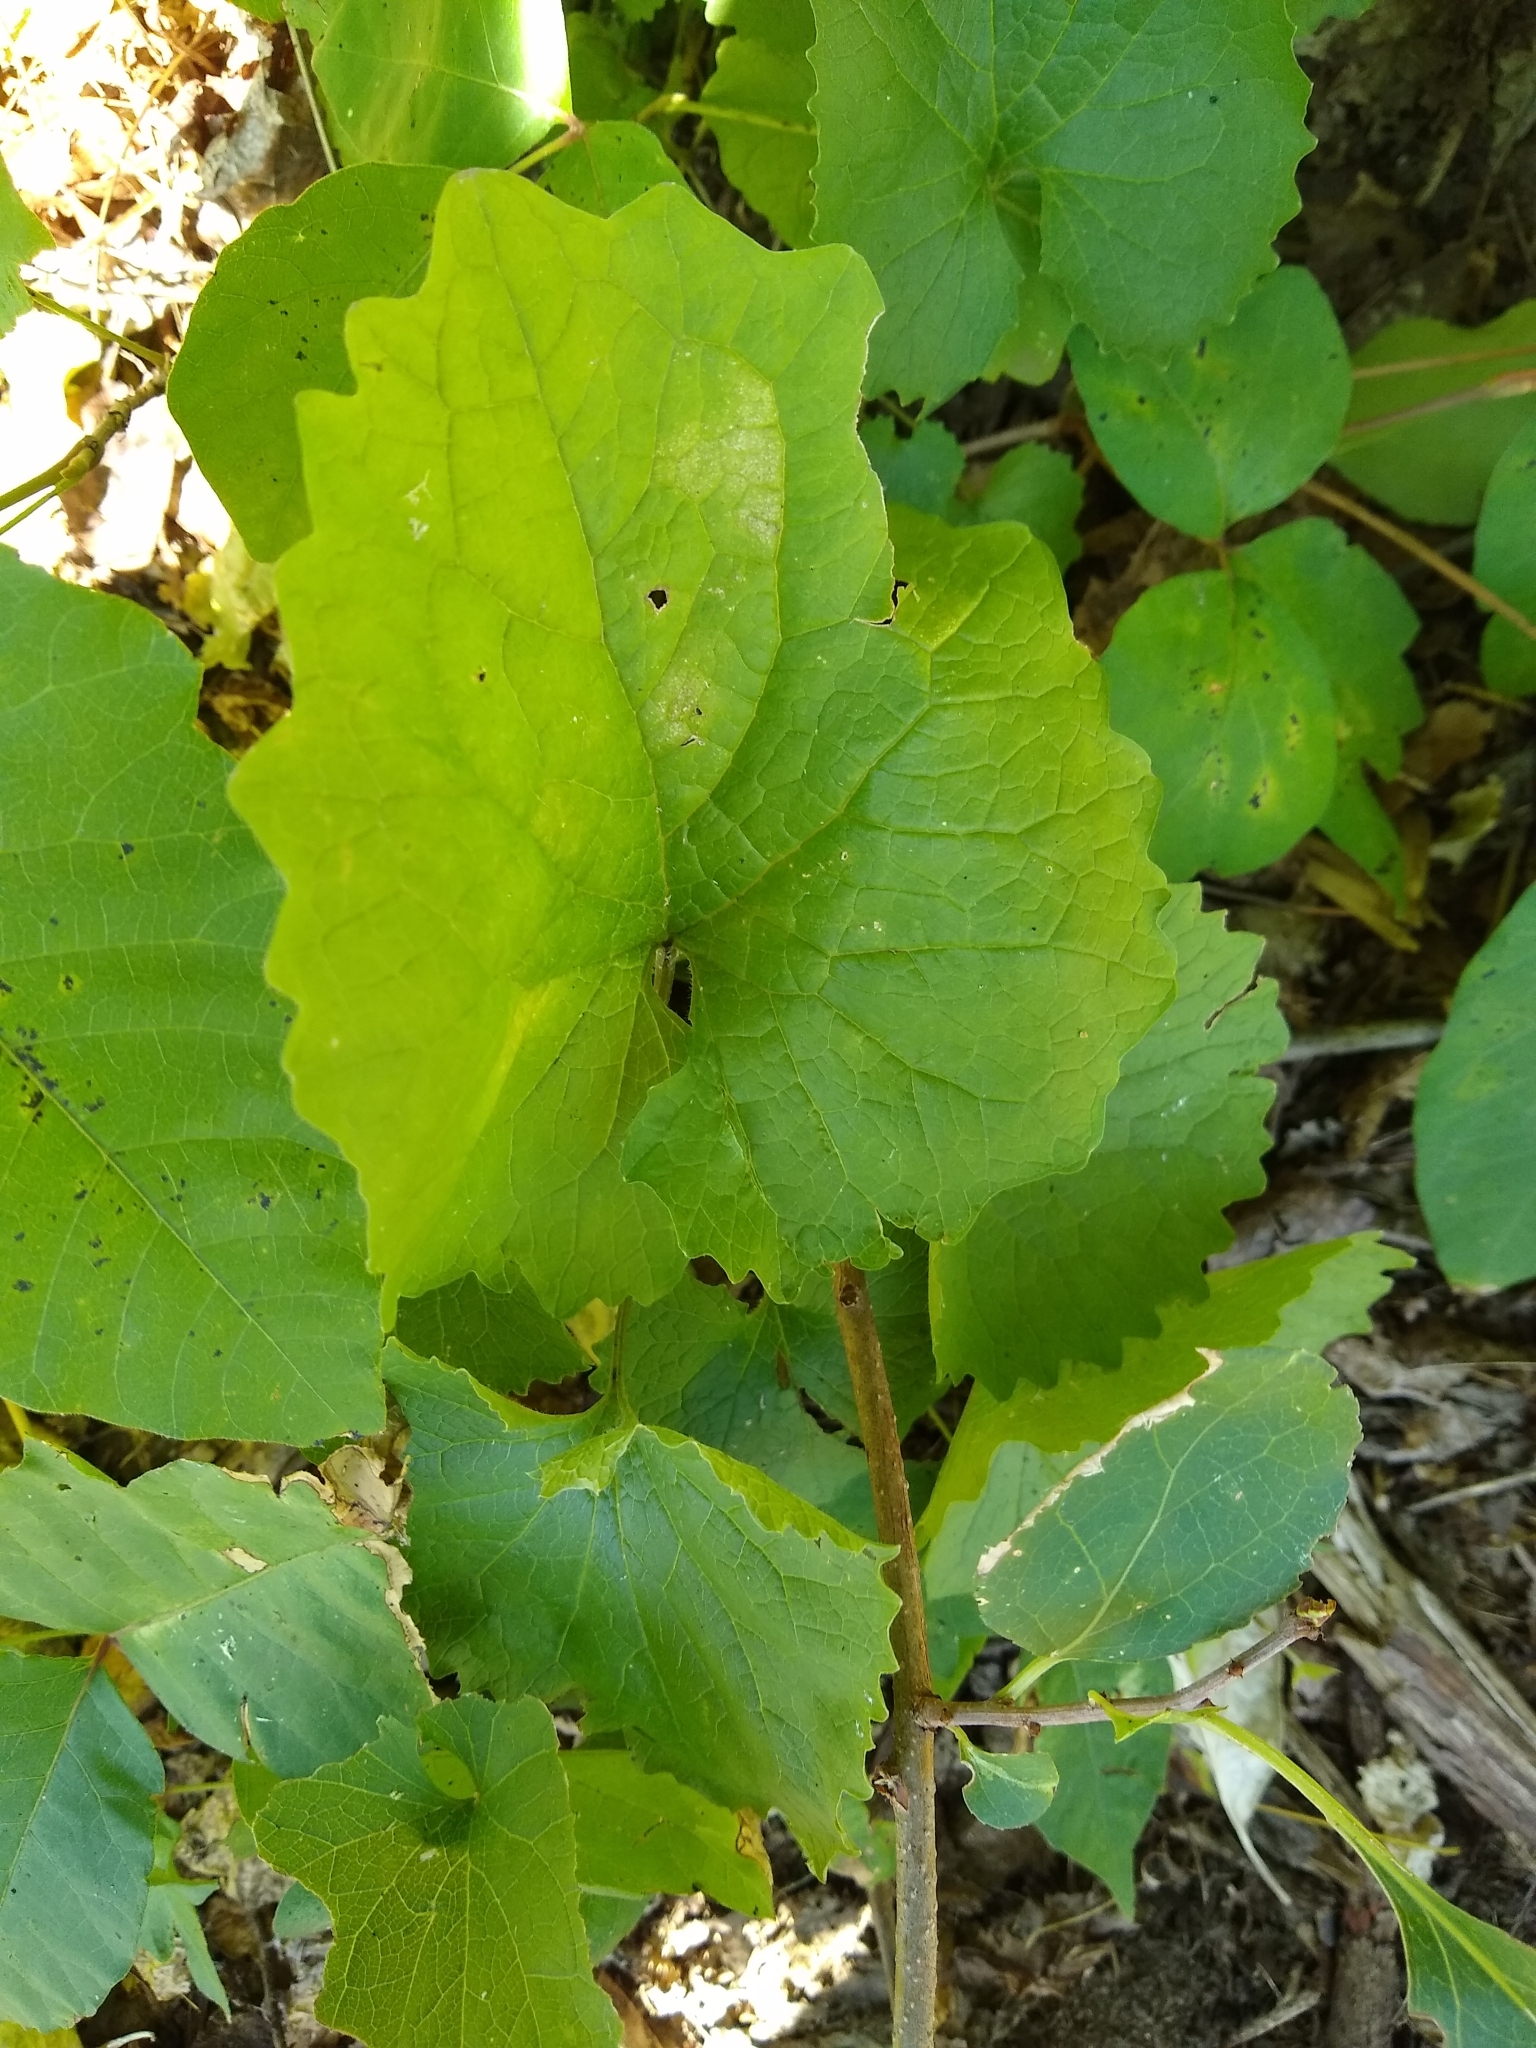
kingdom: Plantae
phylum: Tracheophyta
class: Magnoliopsida
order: Brassicales
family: Brassicaceae
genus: Alliaria
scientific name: Alliaria petiolata
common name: Garlic mustard
